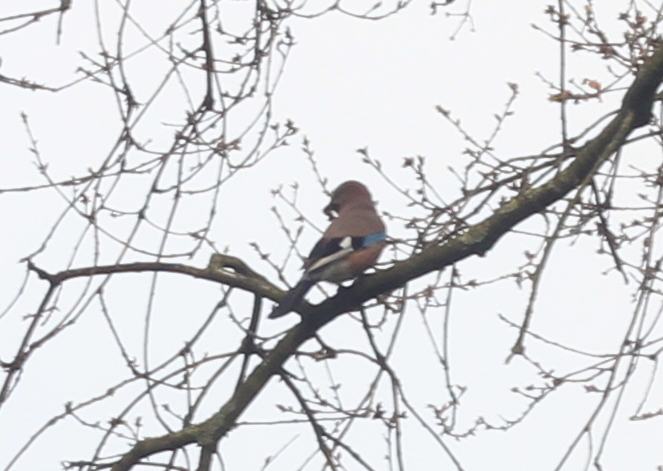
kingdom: Animalia
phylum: Chordata
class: Aves
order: Passeriformes
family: Corvidae
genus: Garrulus
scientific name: Garrulus glandarius
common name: Eurasian jay
